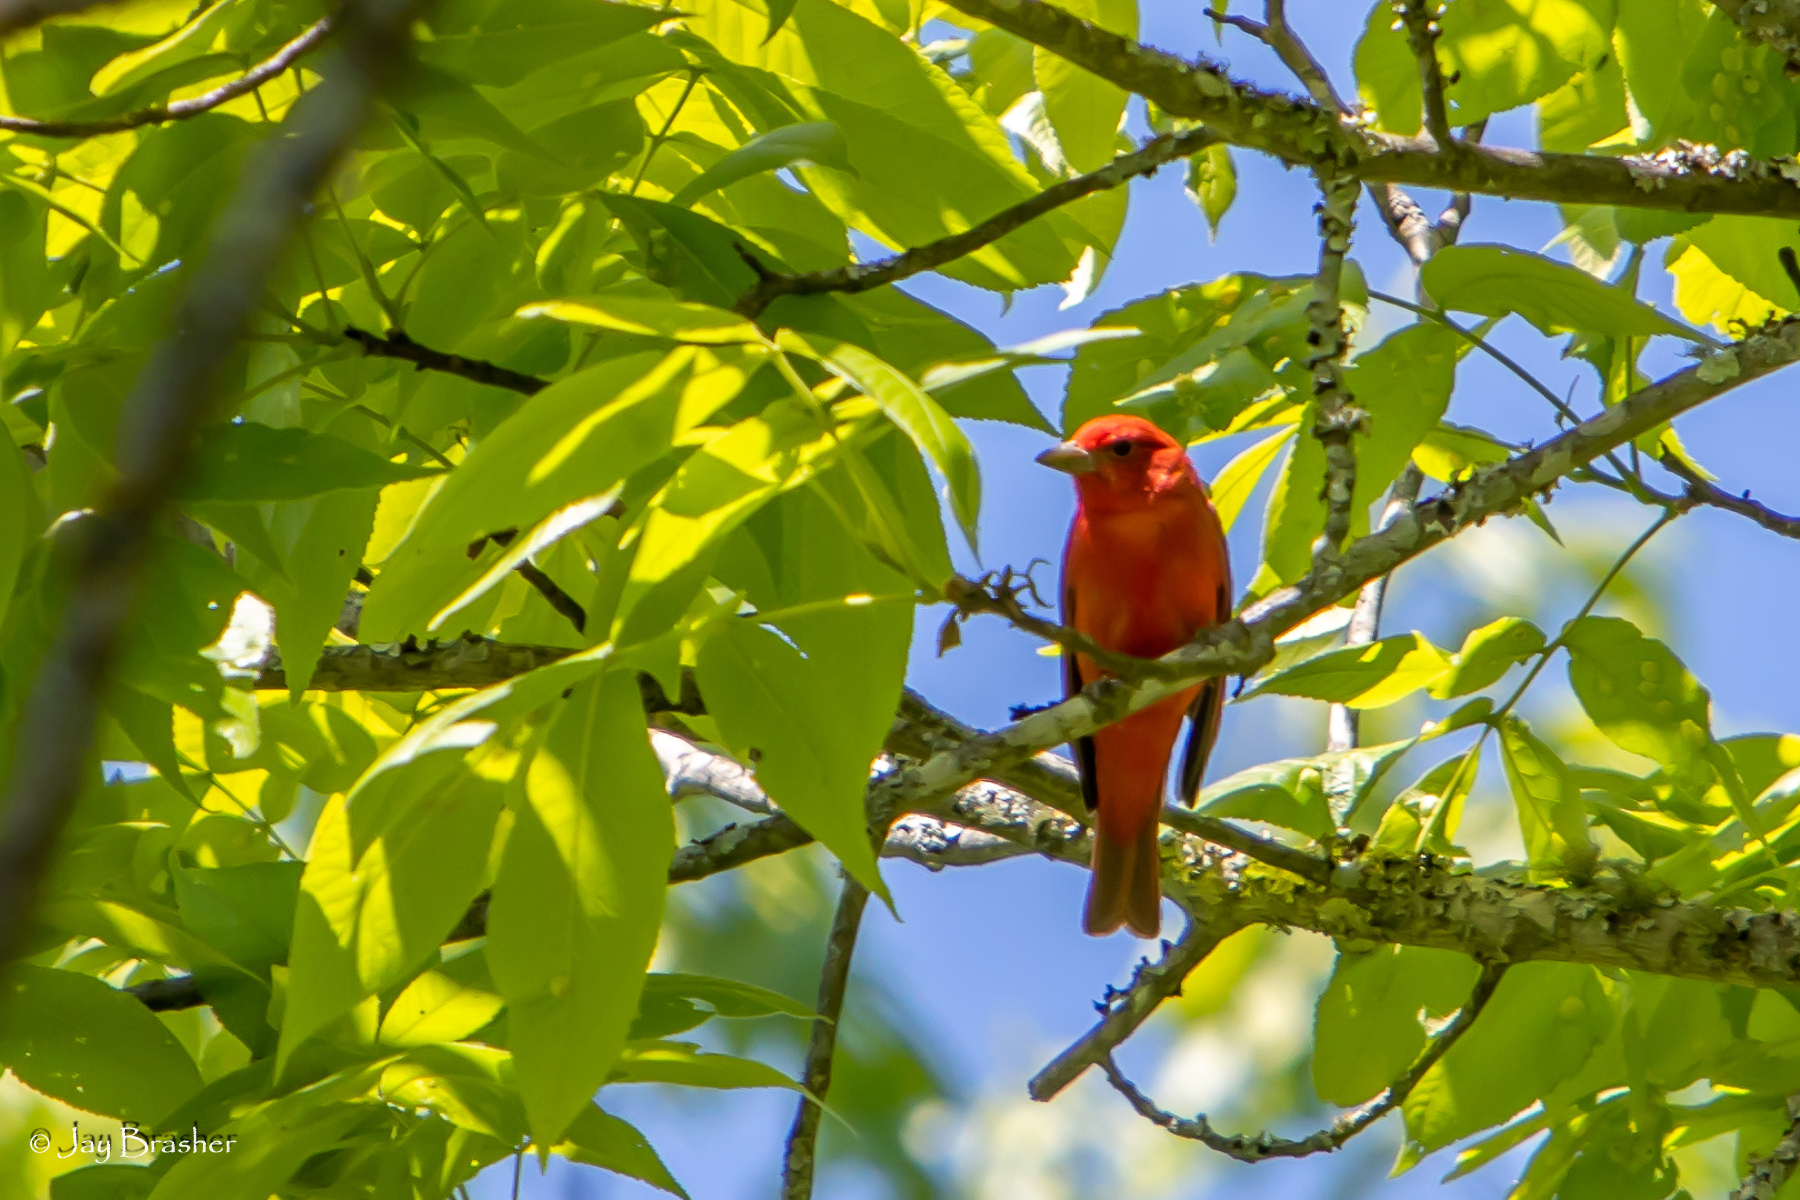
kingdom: Animalia
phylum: Chordata
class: Aves
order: Passeriformes
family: Cardinalidae
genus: Piranga
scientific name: Piranga rubra
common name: Summer tanager
